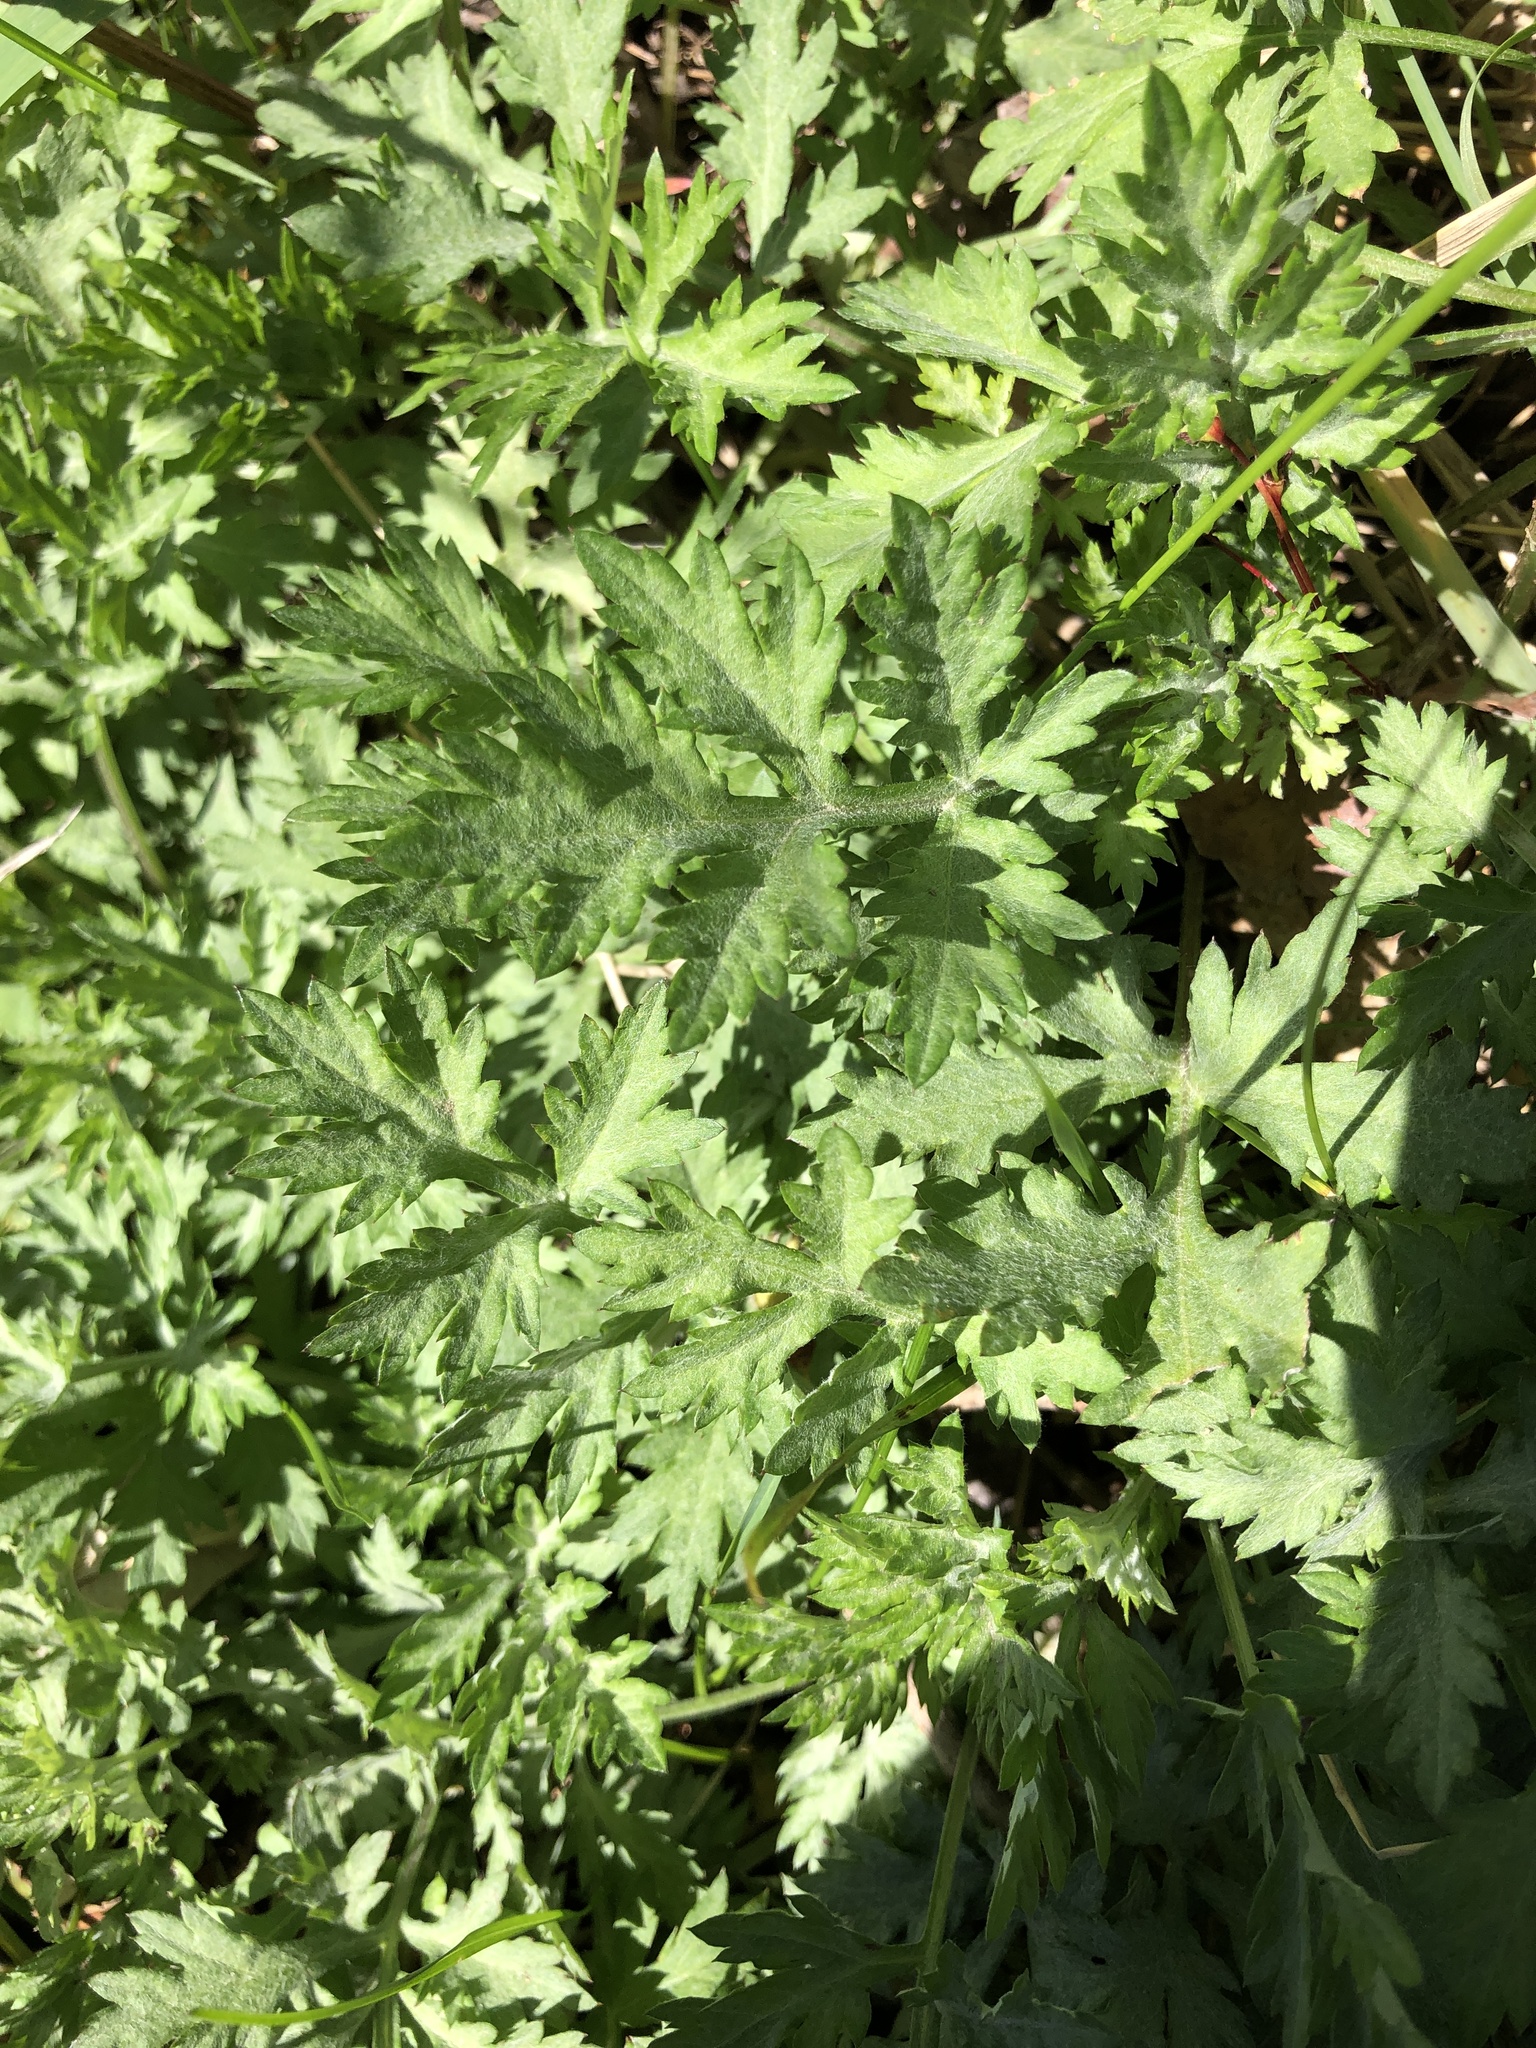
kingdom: Plantae
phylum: Tracheophyta
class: Magnoliopsida
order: Asterales
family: Asteraceae
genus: Artemisia
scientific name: Artemisia vulgaris
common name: Mugwort
